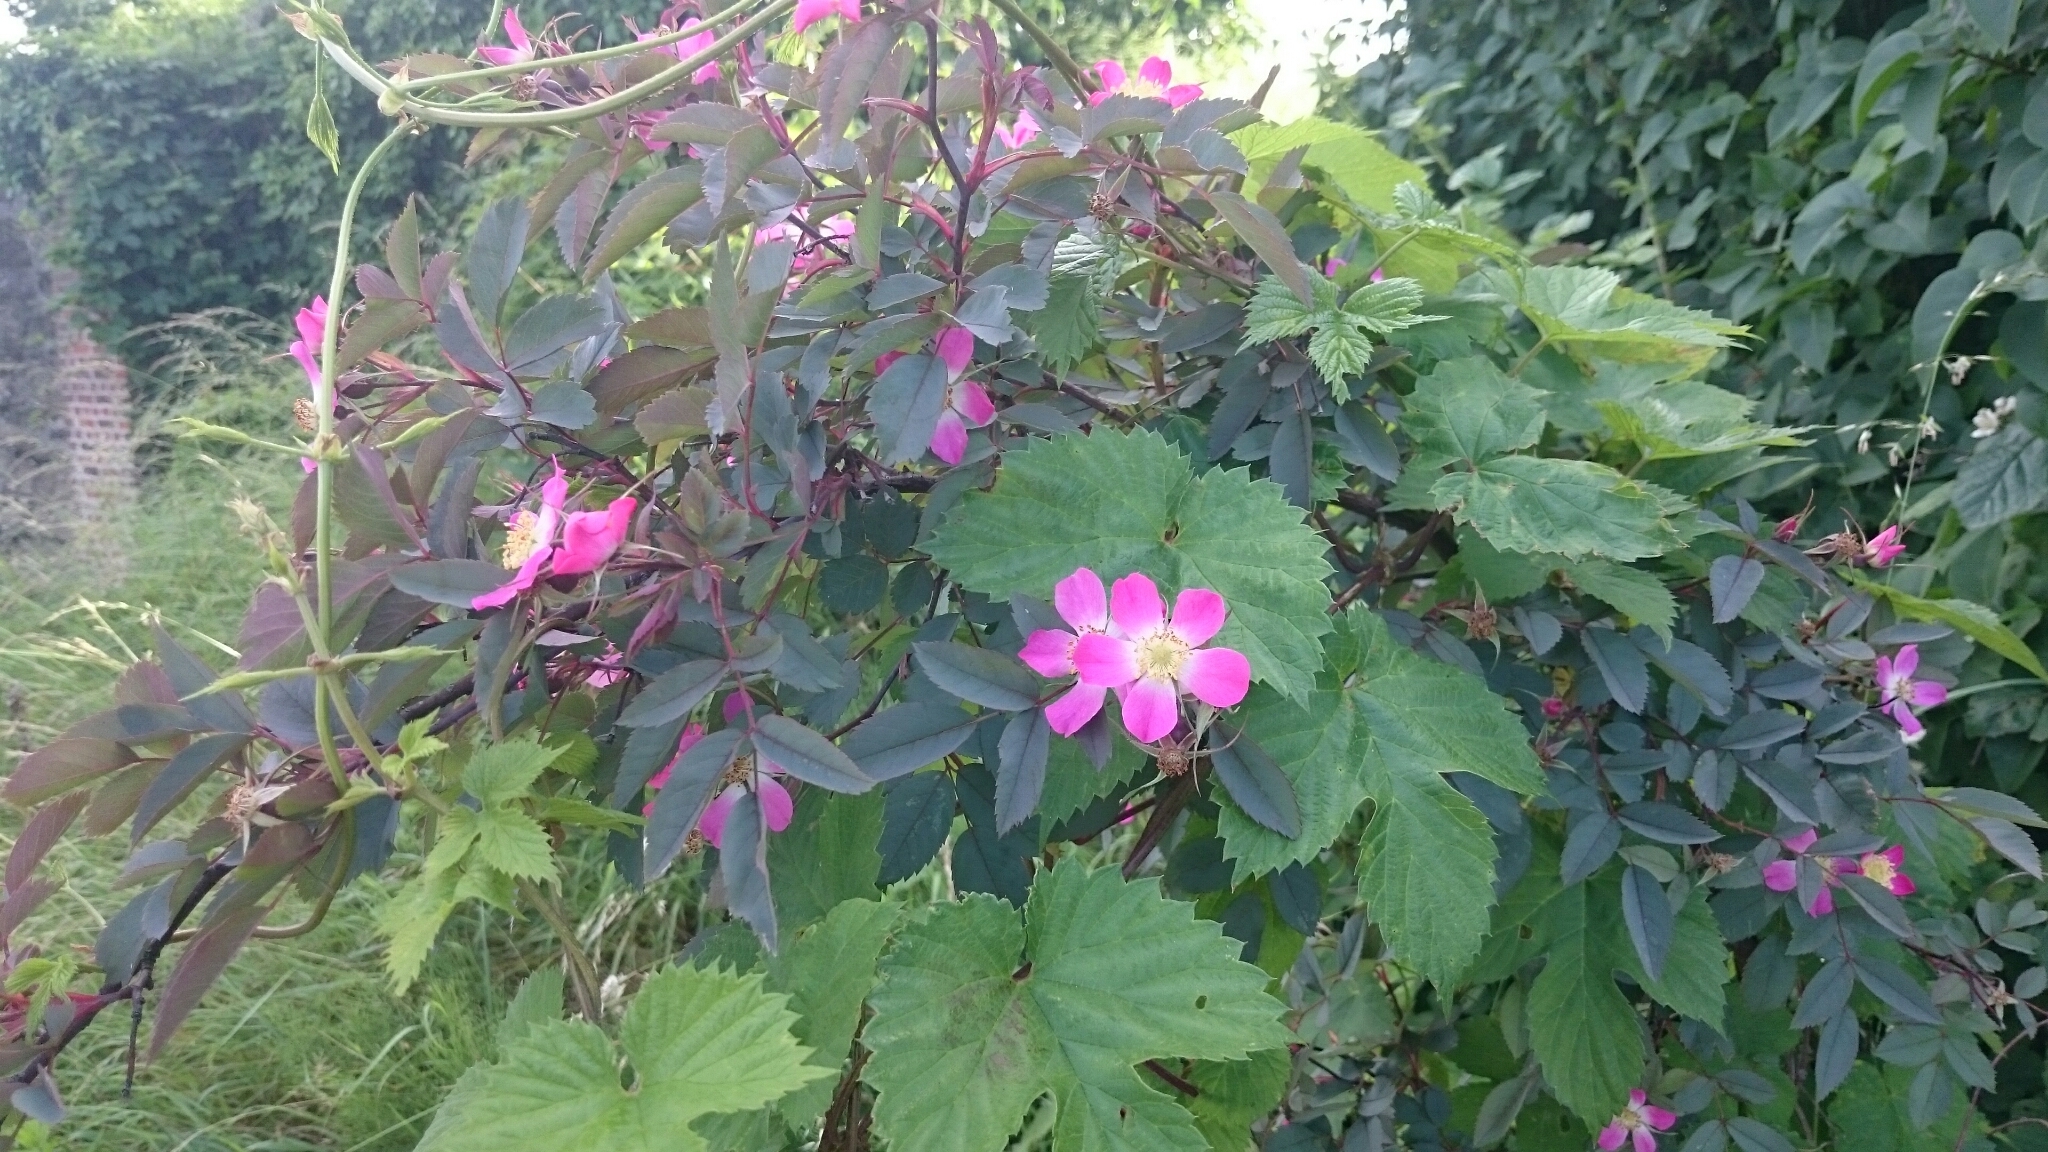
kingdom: Plantae
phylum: Tracheophyta
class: Magnoliopsida
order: Rosales
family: Rosaceae
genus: Rosa
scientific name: Rosa glauca
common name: Redleaf rose
